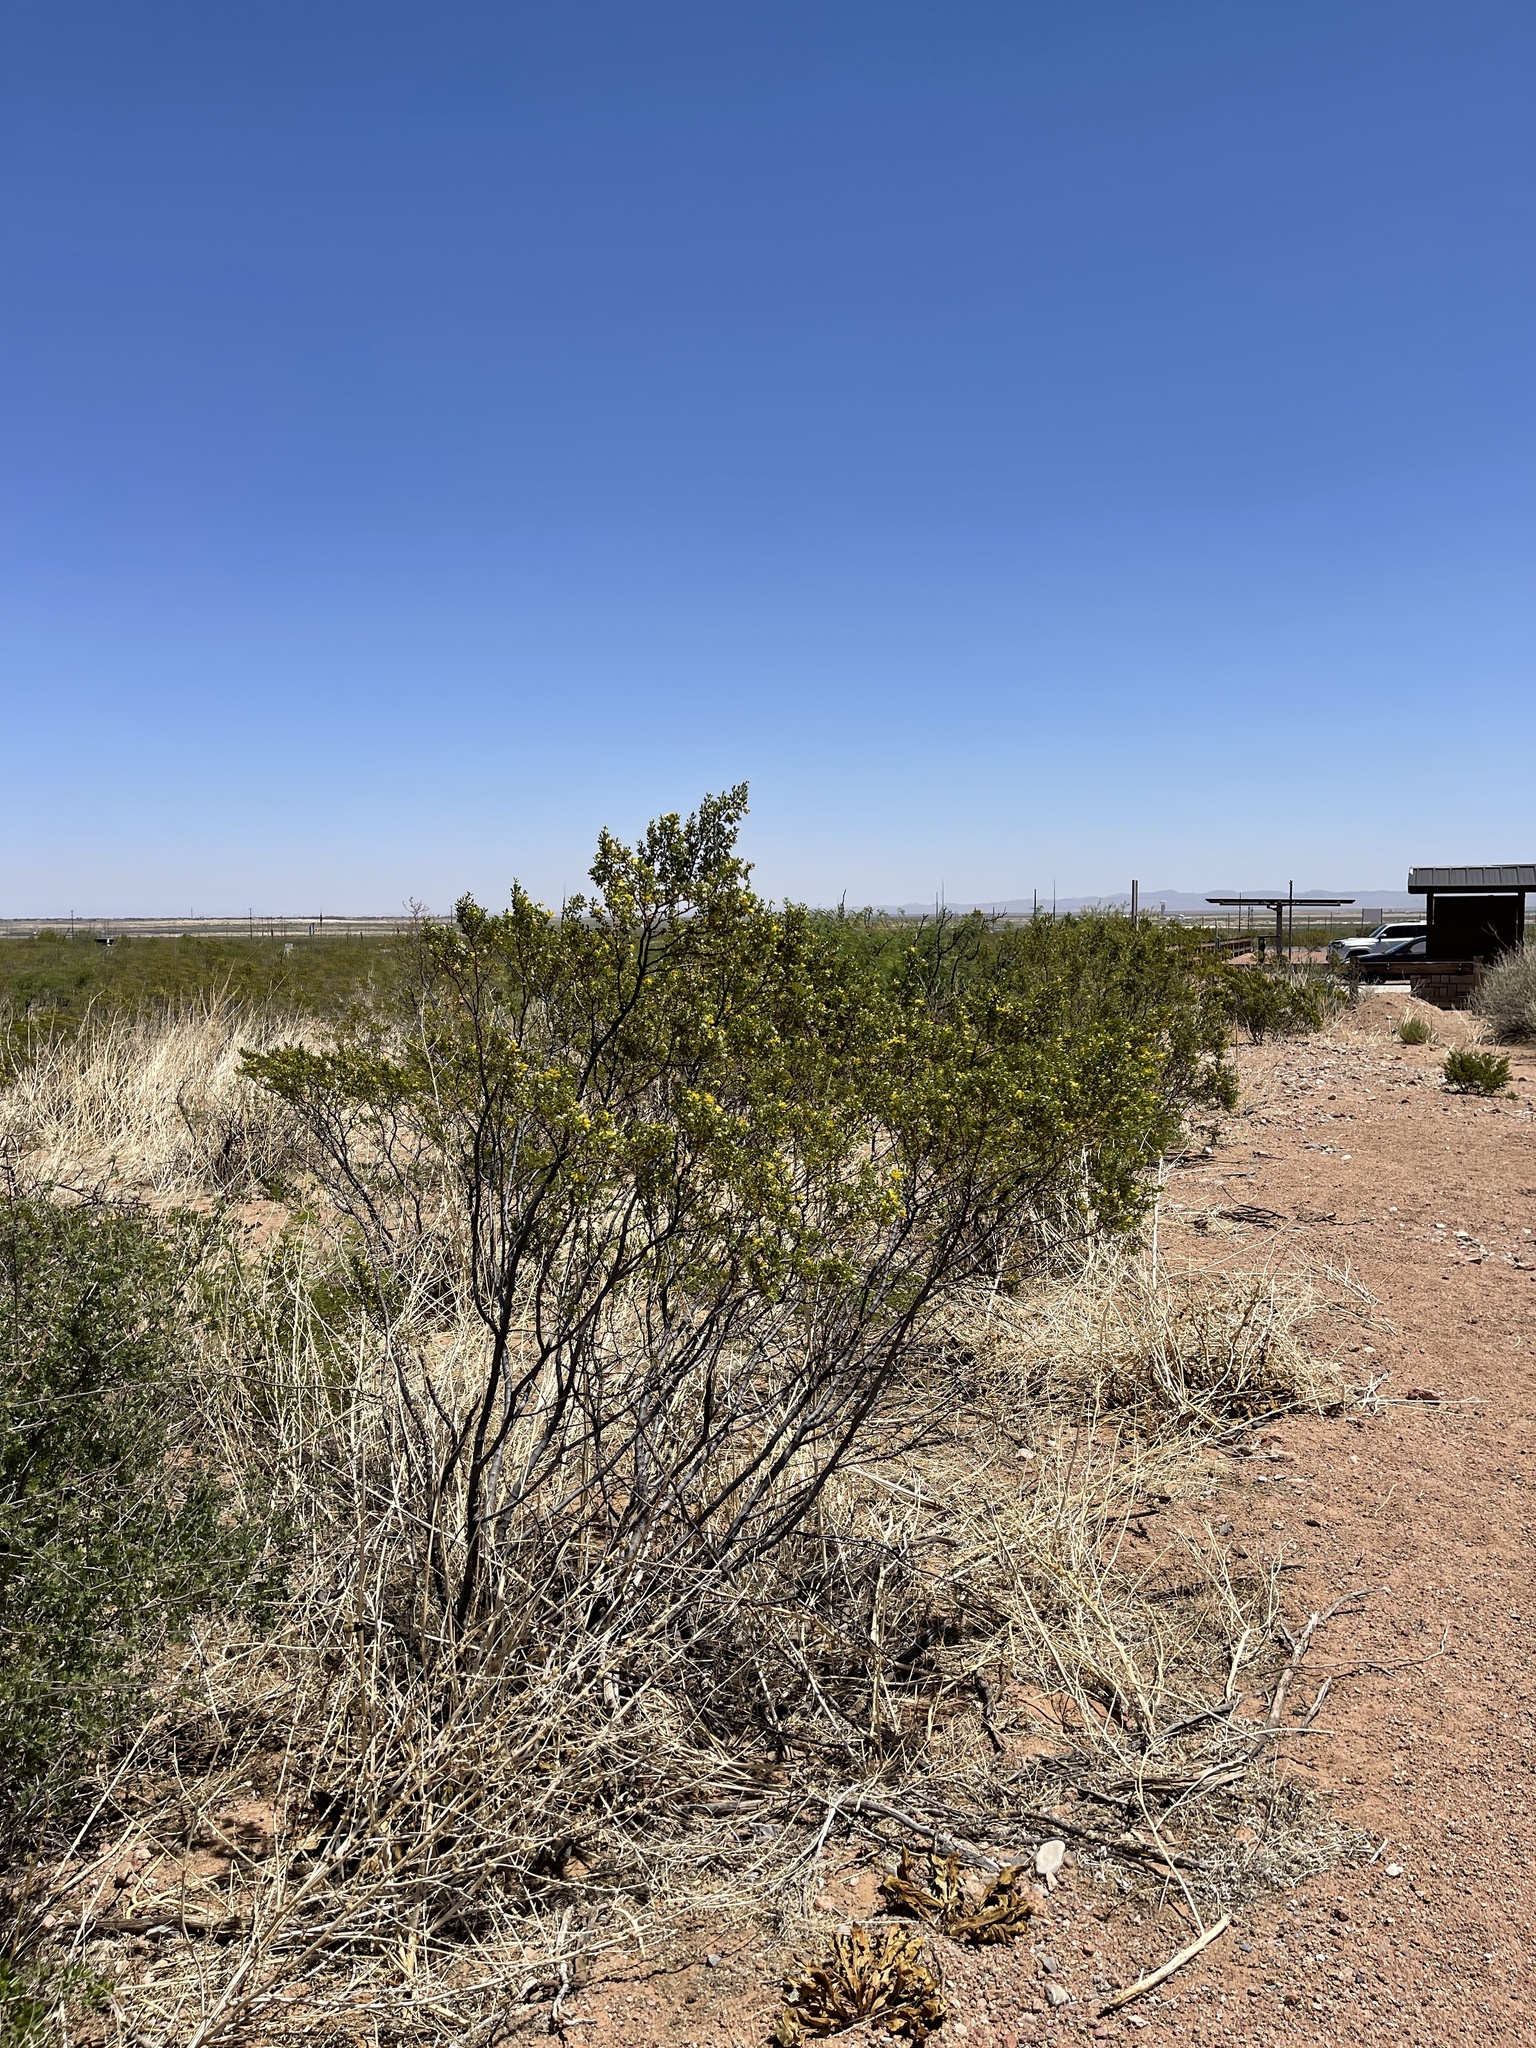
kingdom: Plantae
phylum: Tracheophyta
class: Magnoliopsida
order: Zygophyllales
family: Zygophyllaceae
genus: Larrea
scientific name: Larrea tridentata
